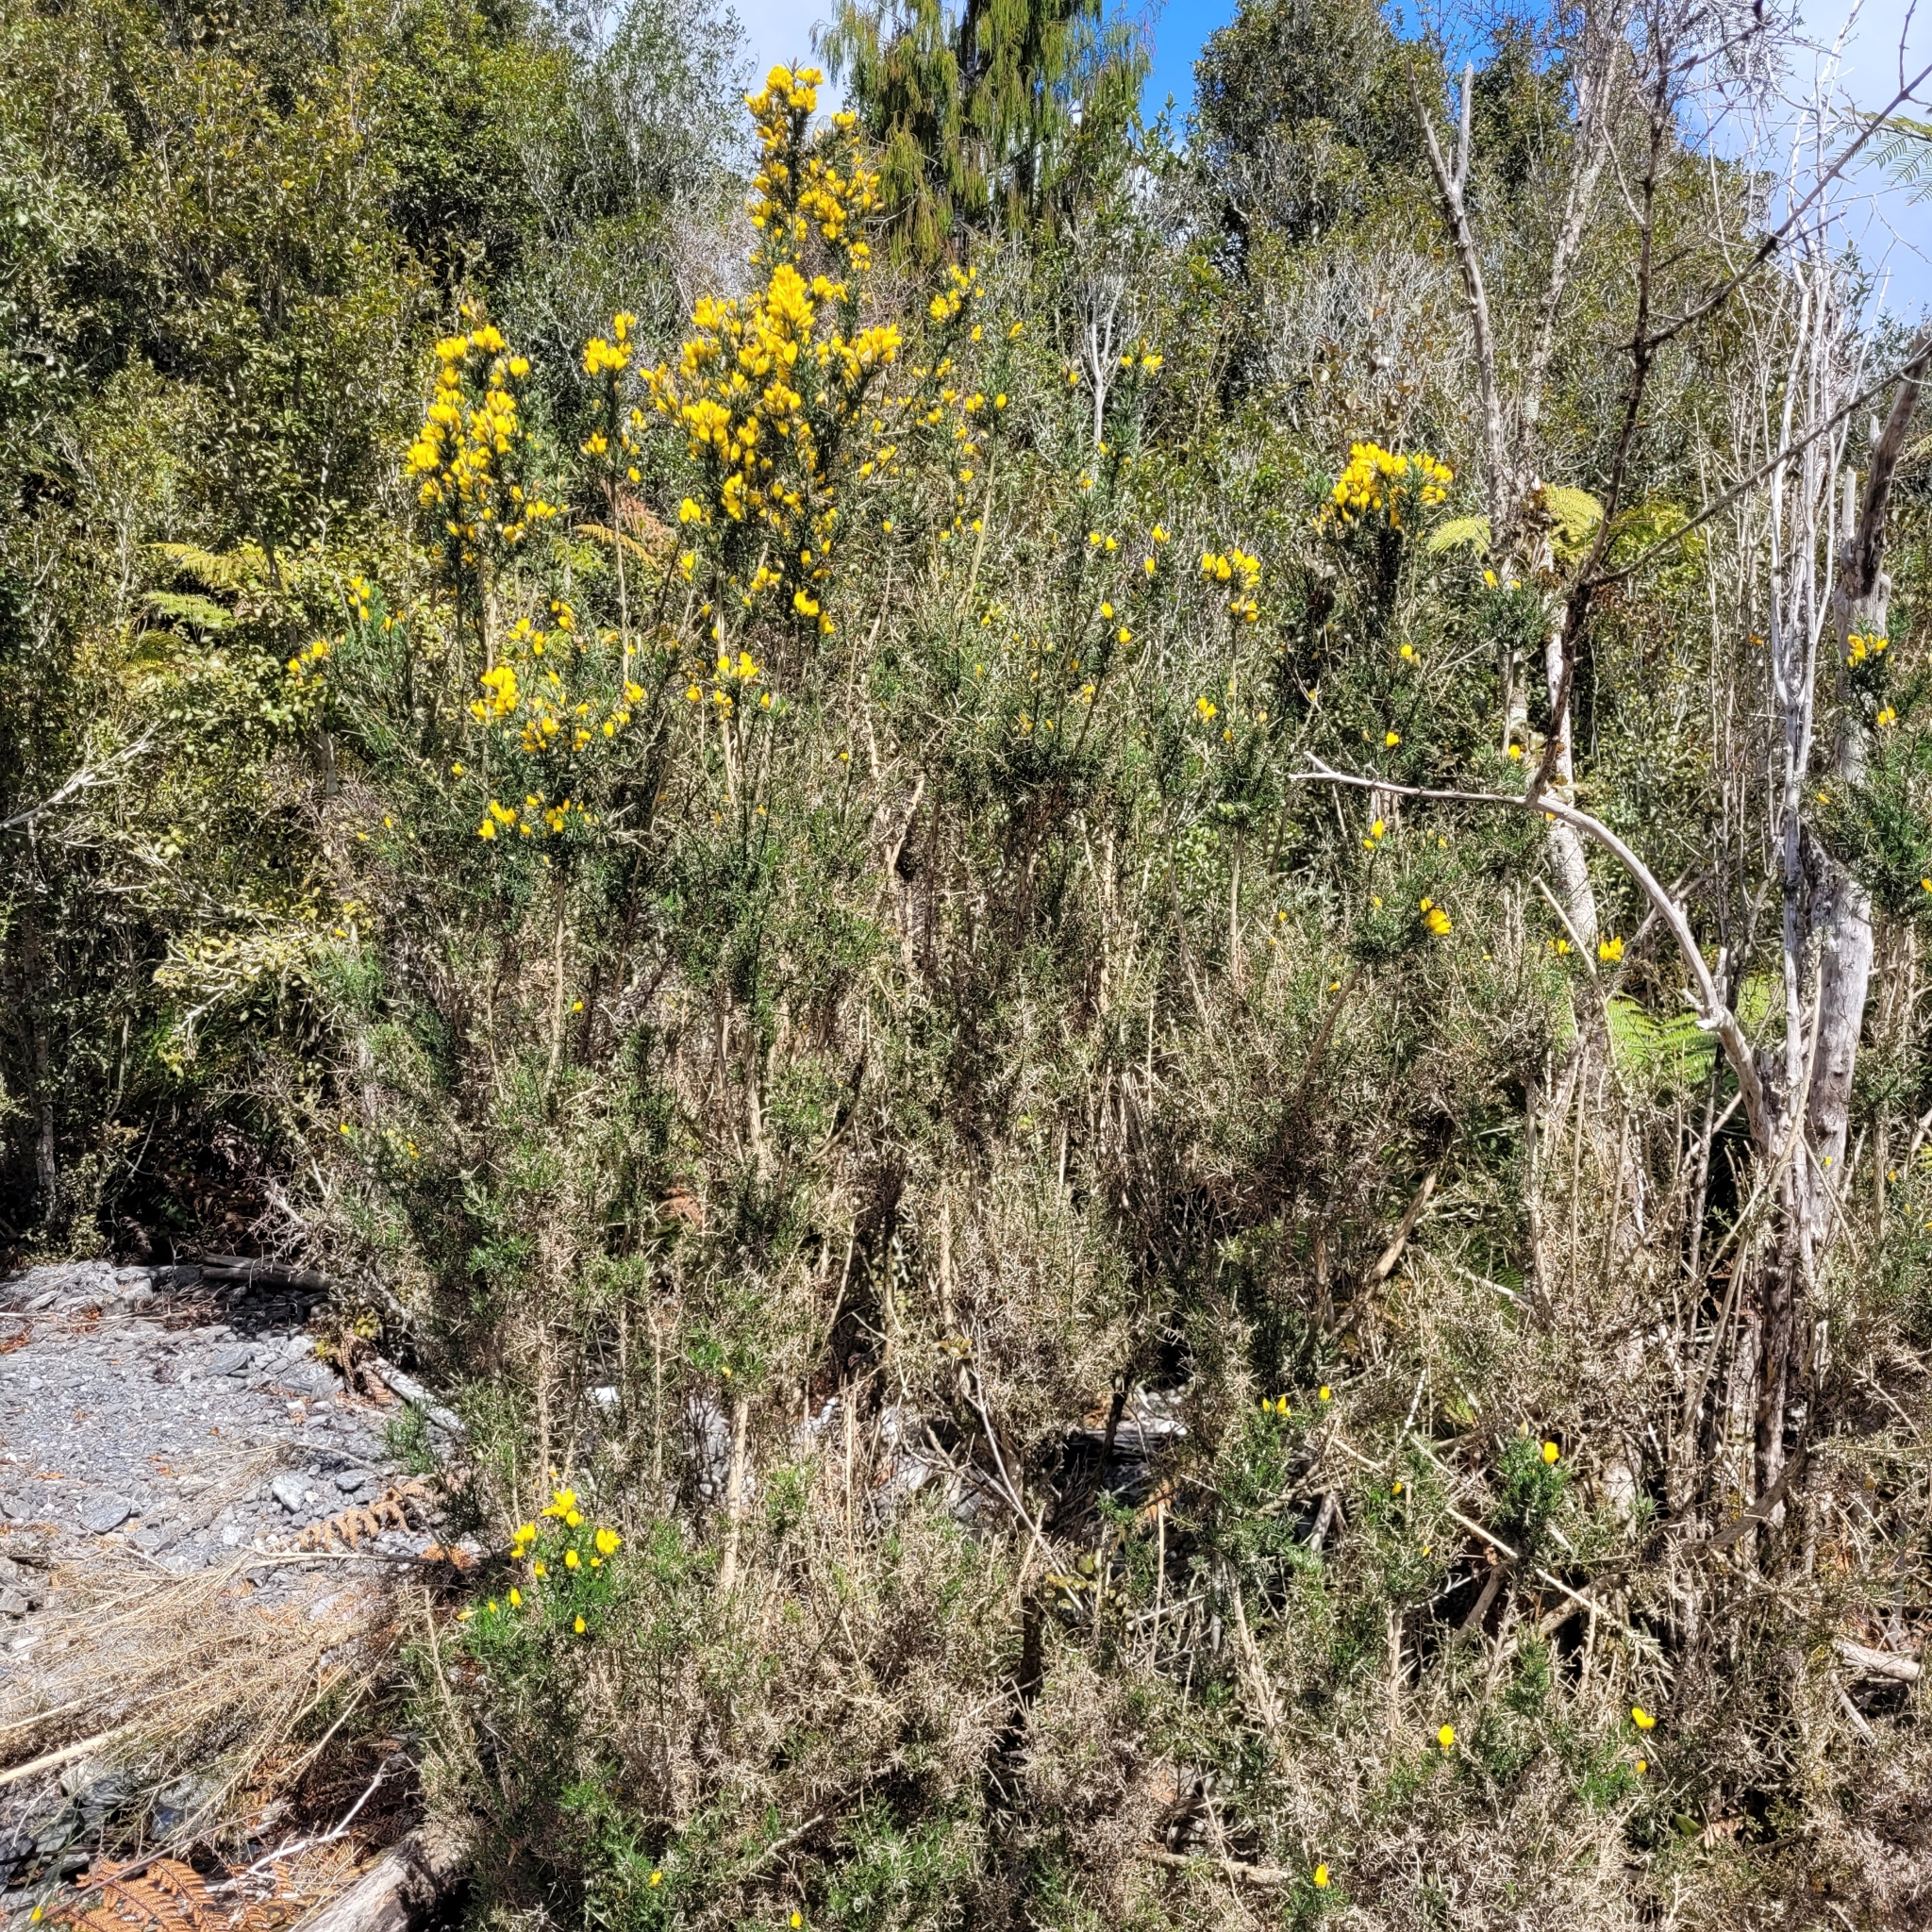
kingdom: Plantae
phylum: Tracheophyta
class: Magnoliopsida
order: Fabales
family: Fabaceae
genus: Ulex
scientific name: Ulex europaeus
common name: Common gorse
